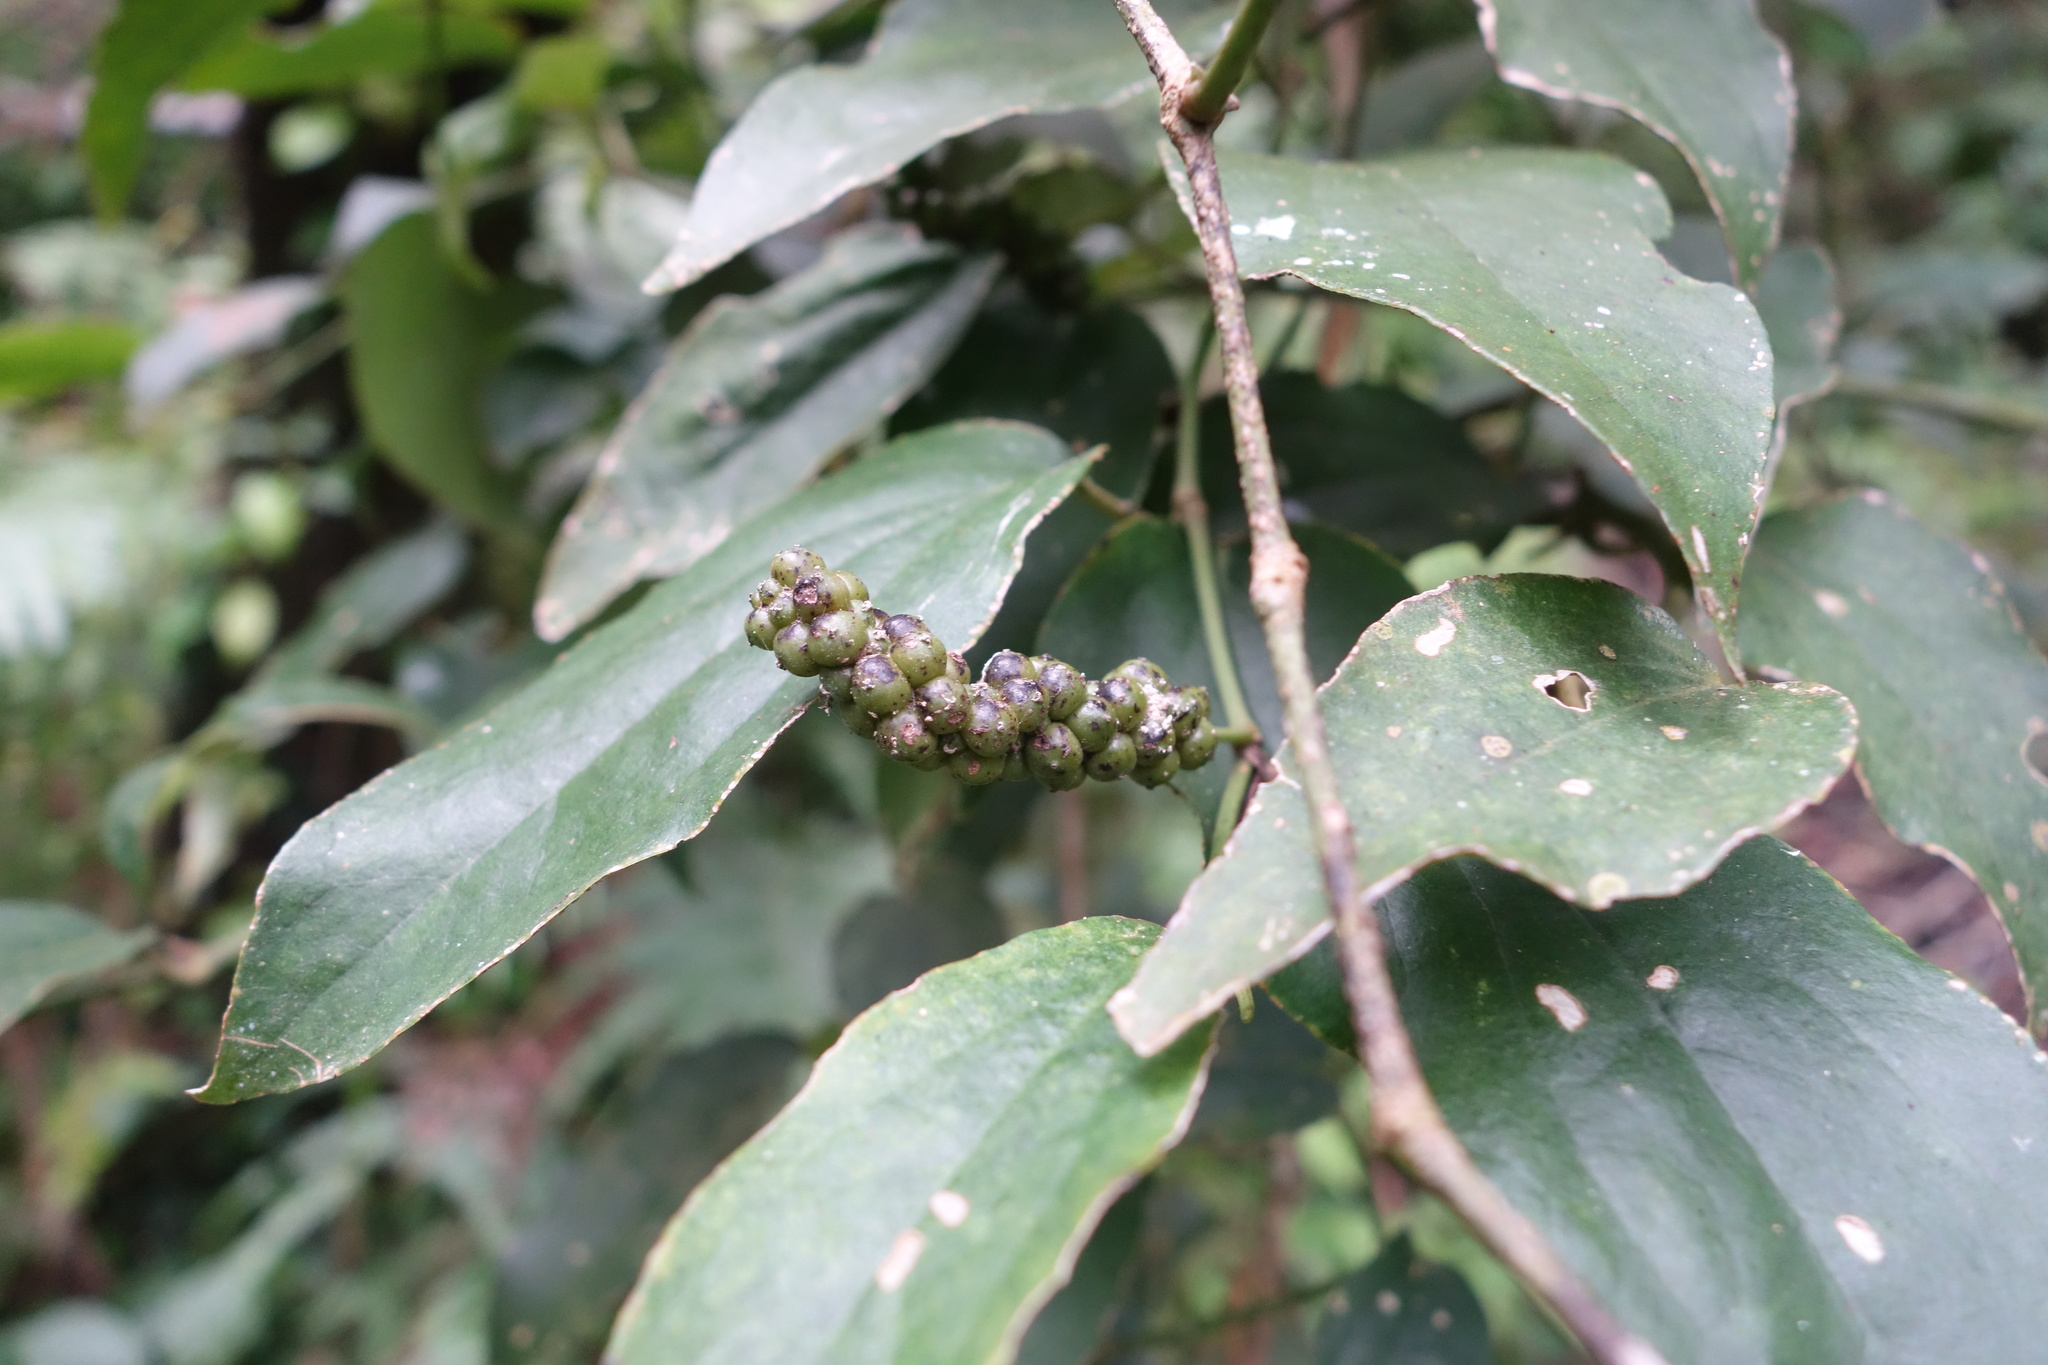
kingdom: Plantae
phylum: Tracheophyta
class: Magnoliopsida
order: Piperales
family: Piperaceae
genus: Piper
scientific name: Piper kadsura
